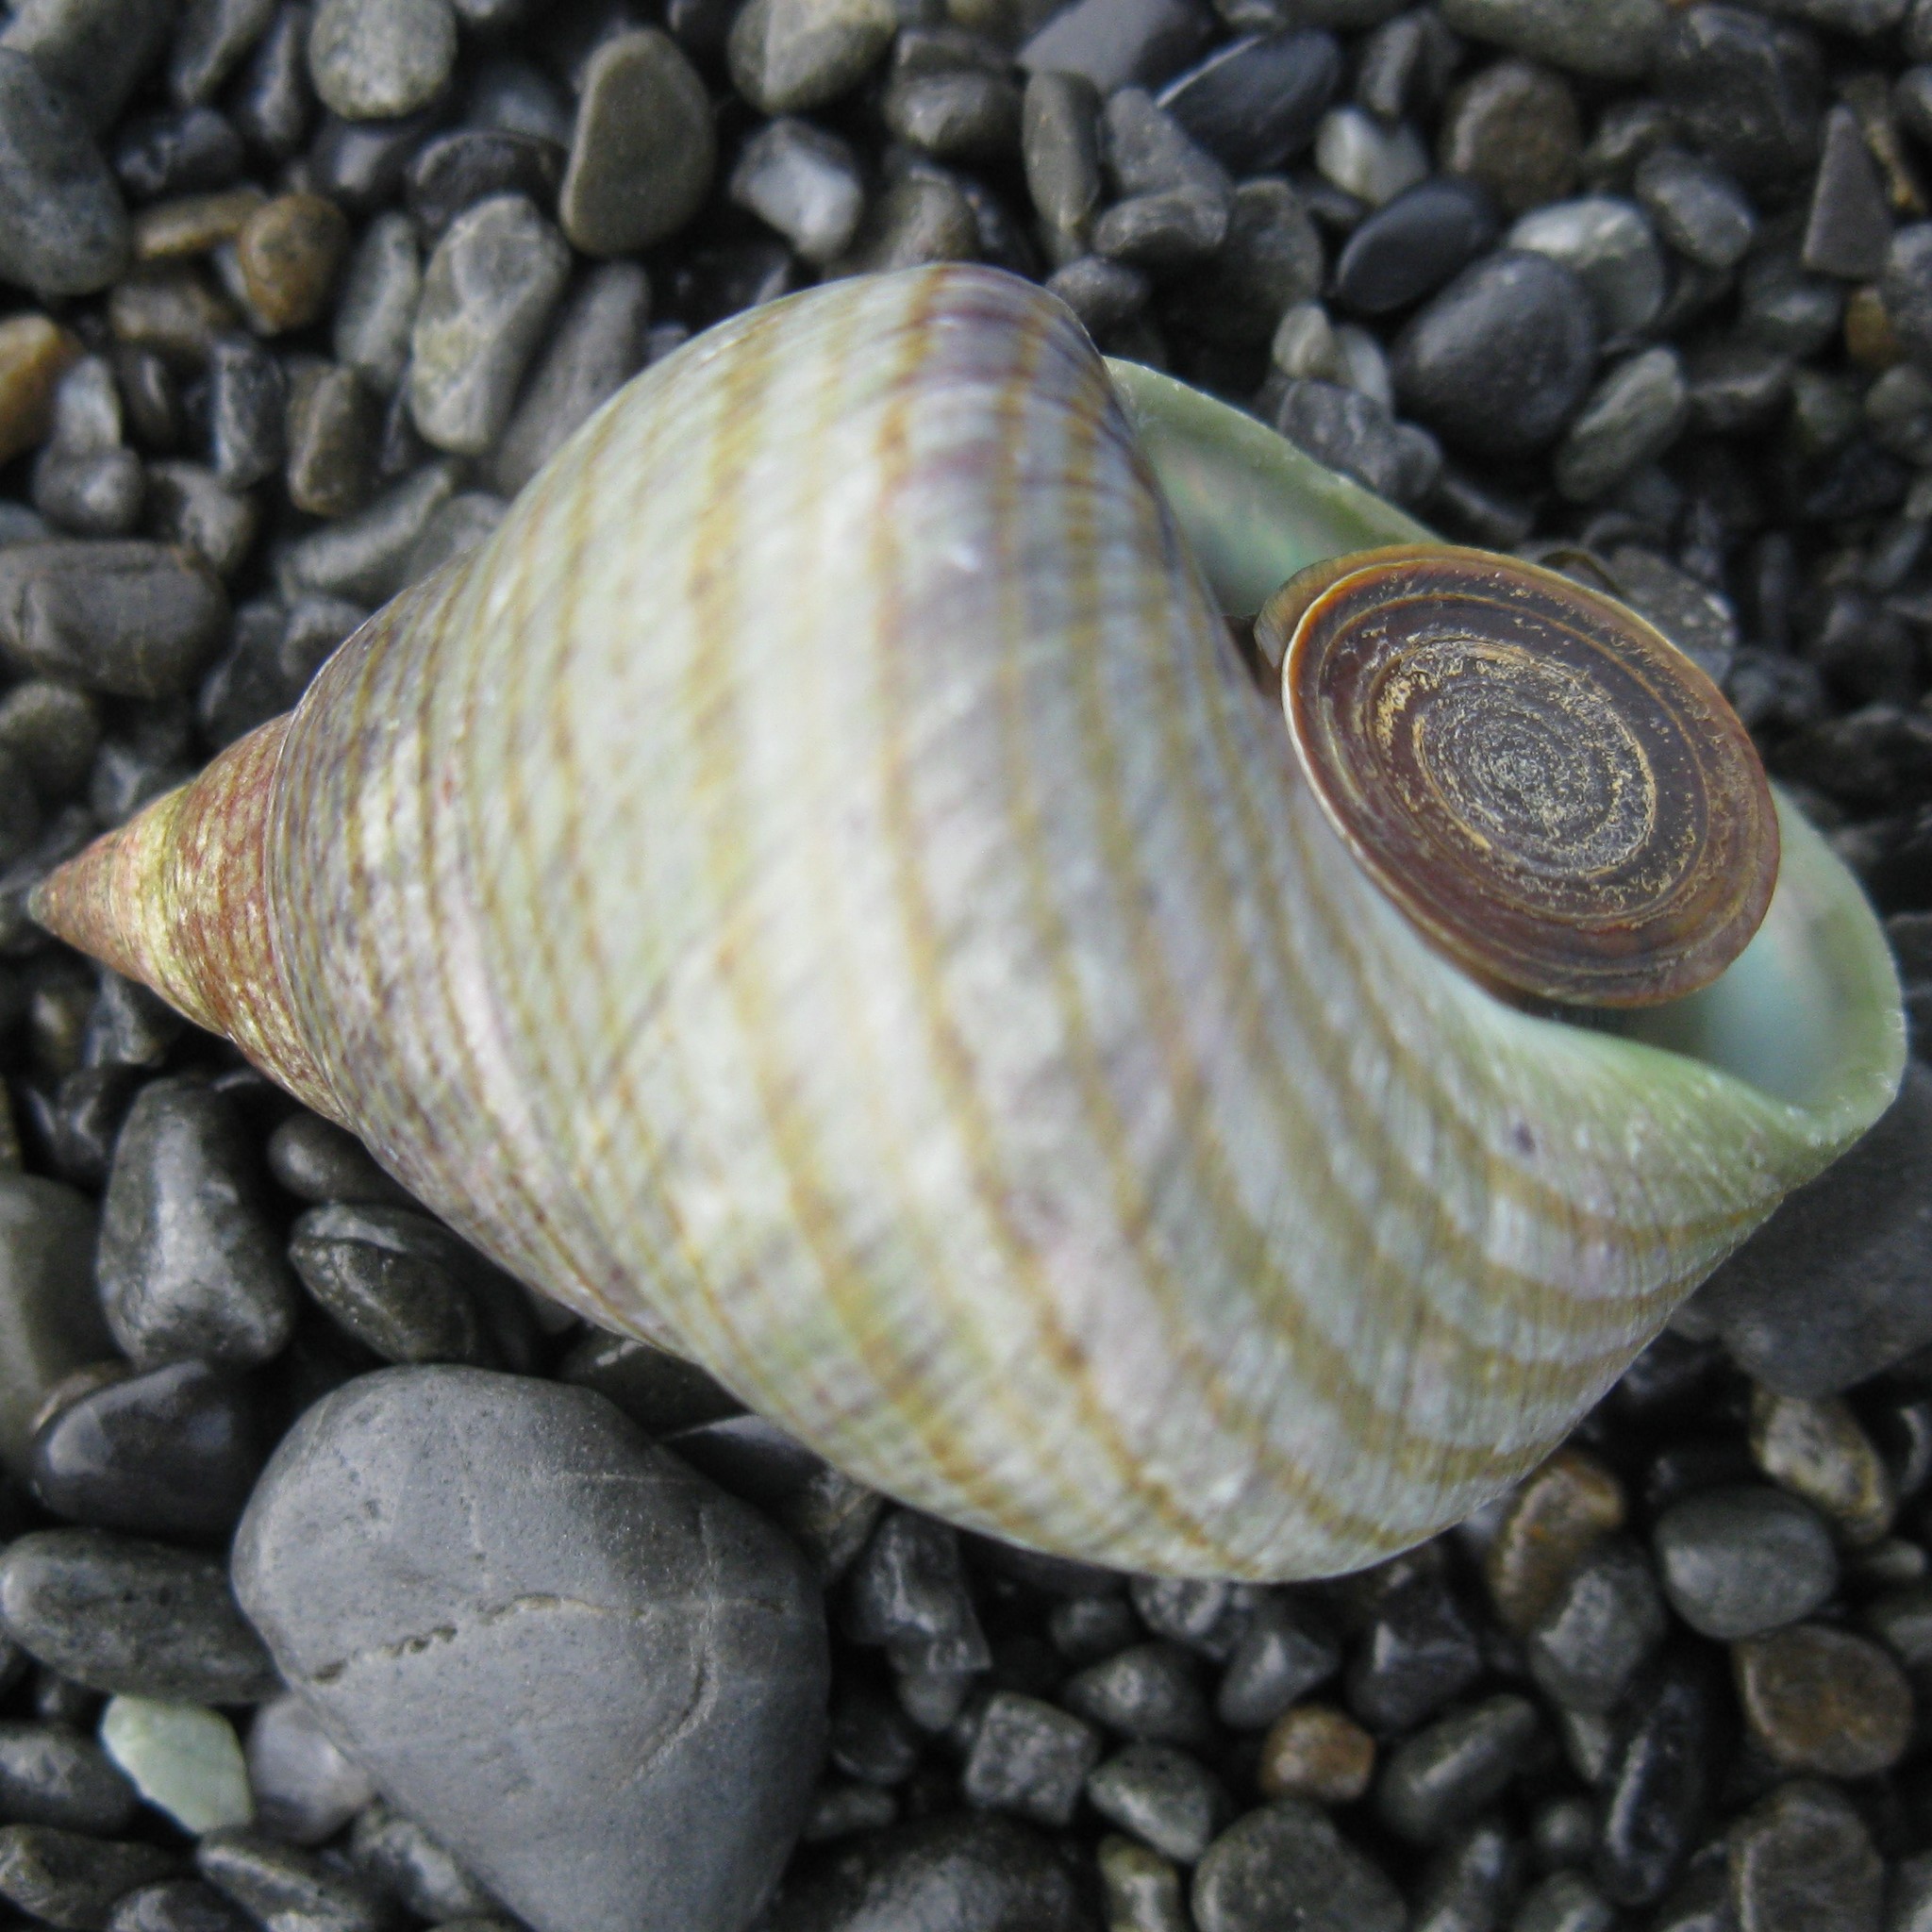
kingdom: Animalia
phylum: Mollusca
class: Gastropoda
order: Trochida
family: Trochidae
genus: Cantharidus
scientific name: Cantharidus opalus
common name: Opal jewel topsnail
